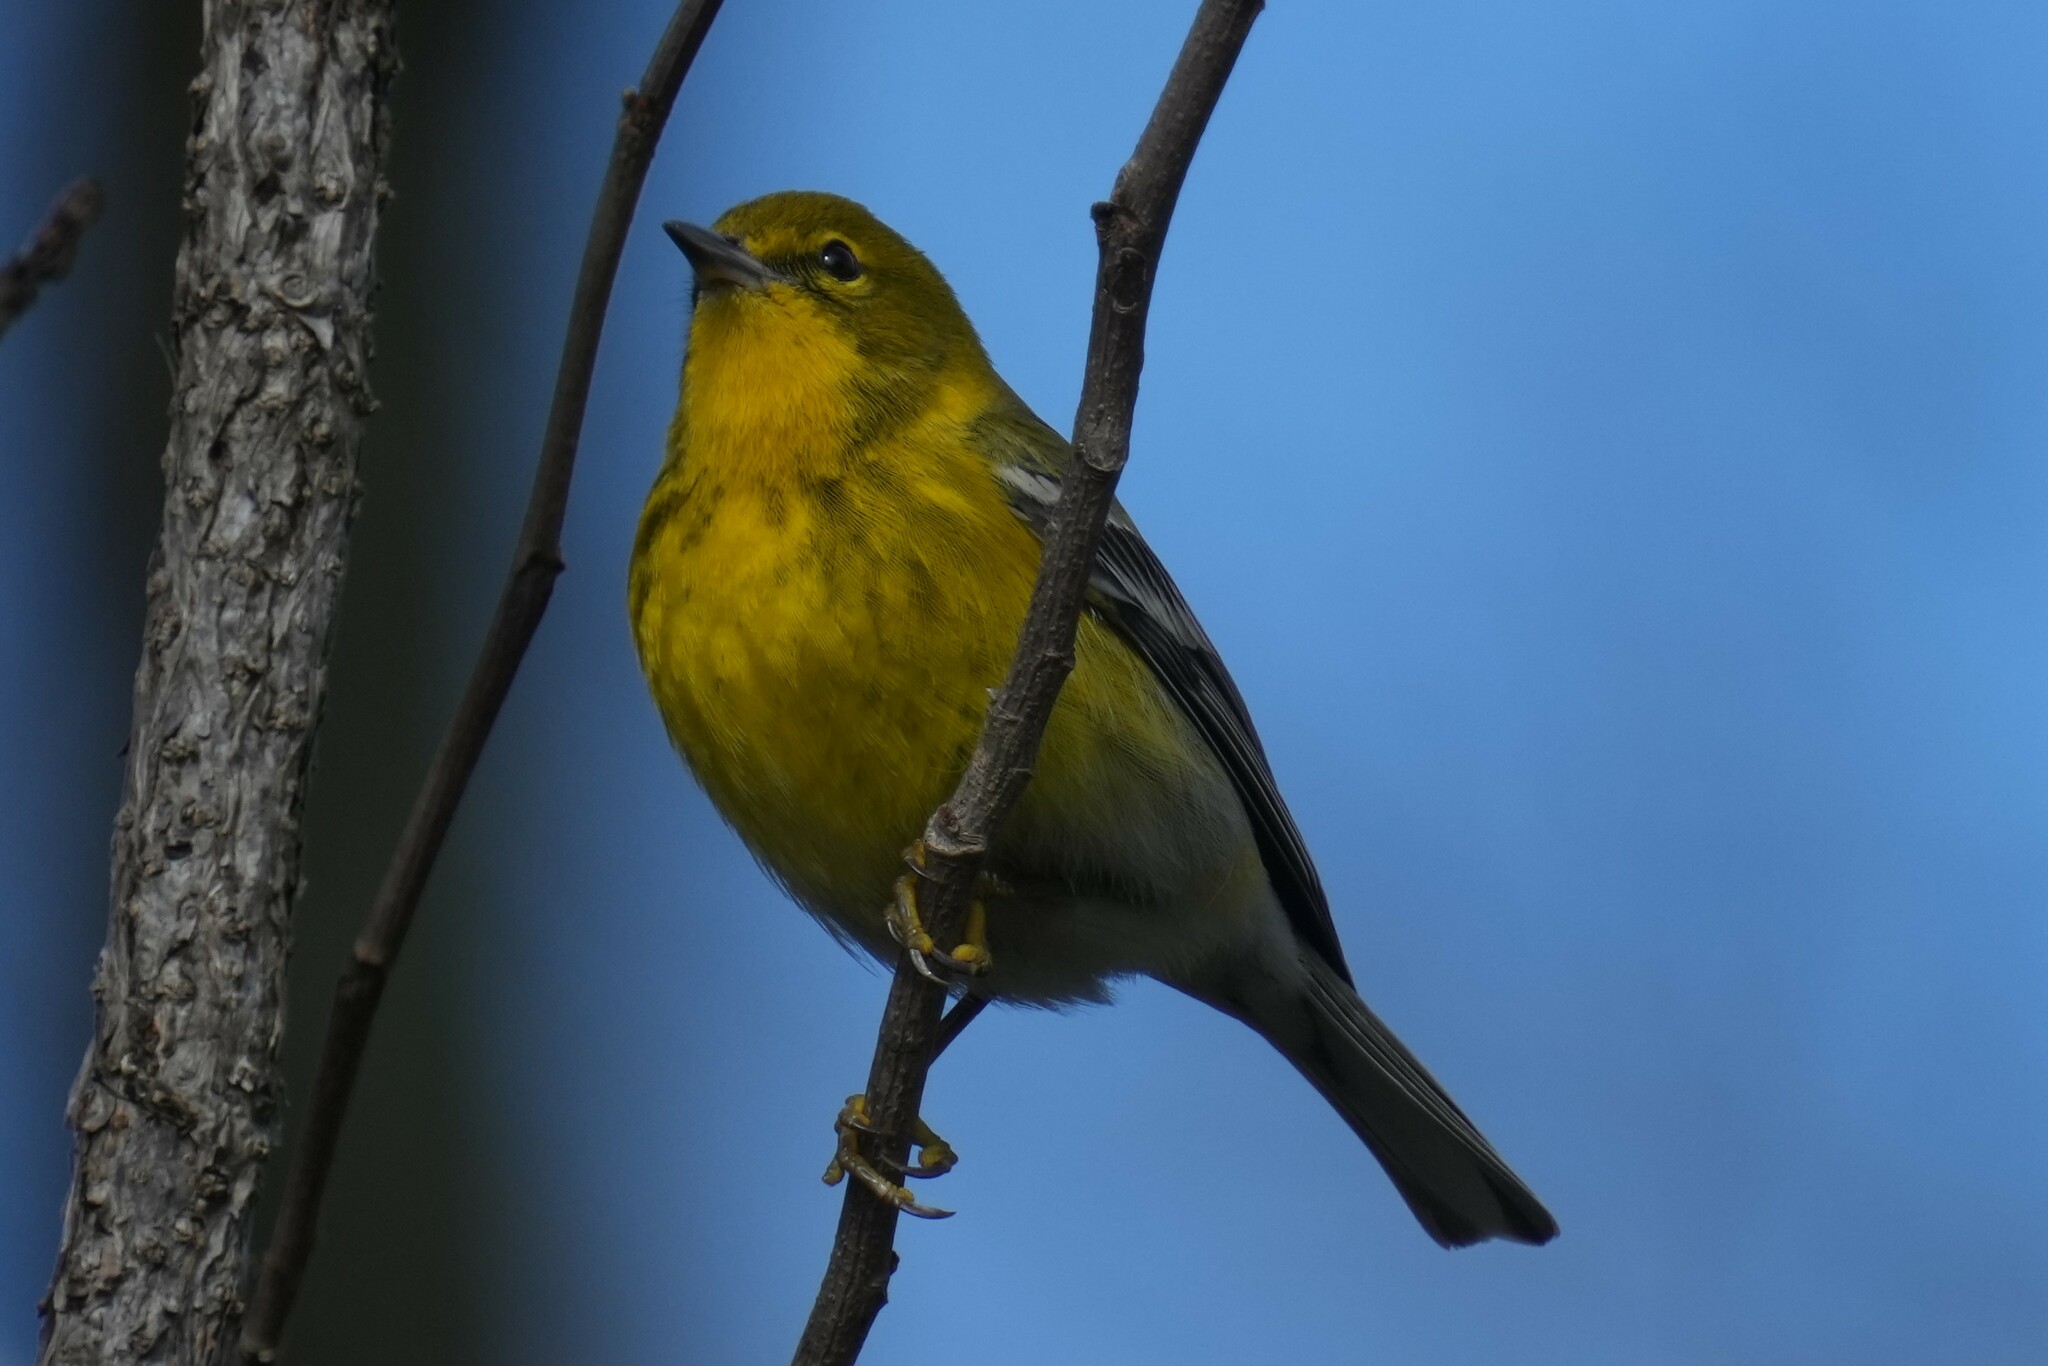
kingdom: Animalia
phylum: Chordata
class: Aves
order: Passeriformes
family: Parulidae
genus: Setophaga
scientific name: Setophaga pinus
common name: Pine warbler
